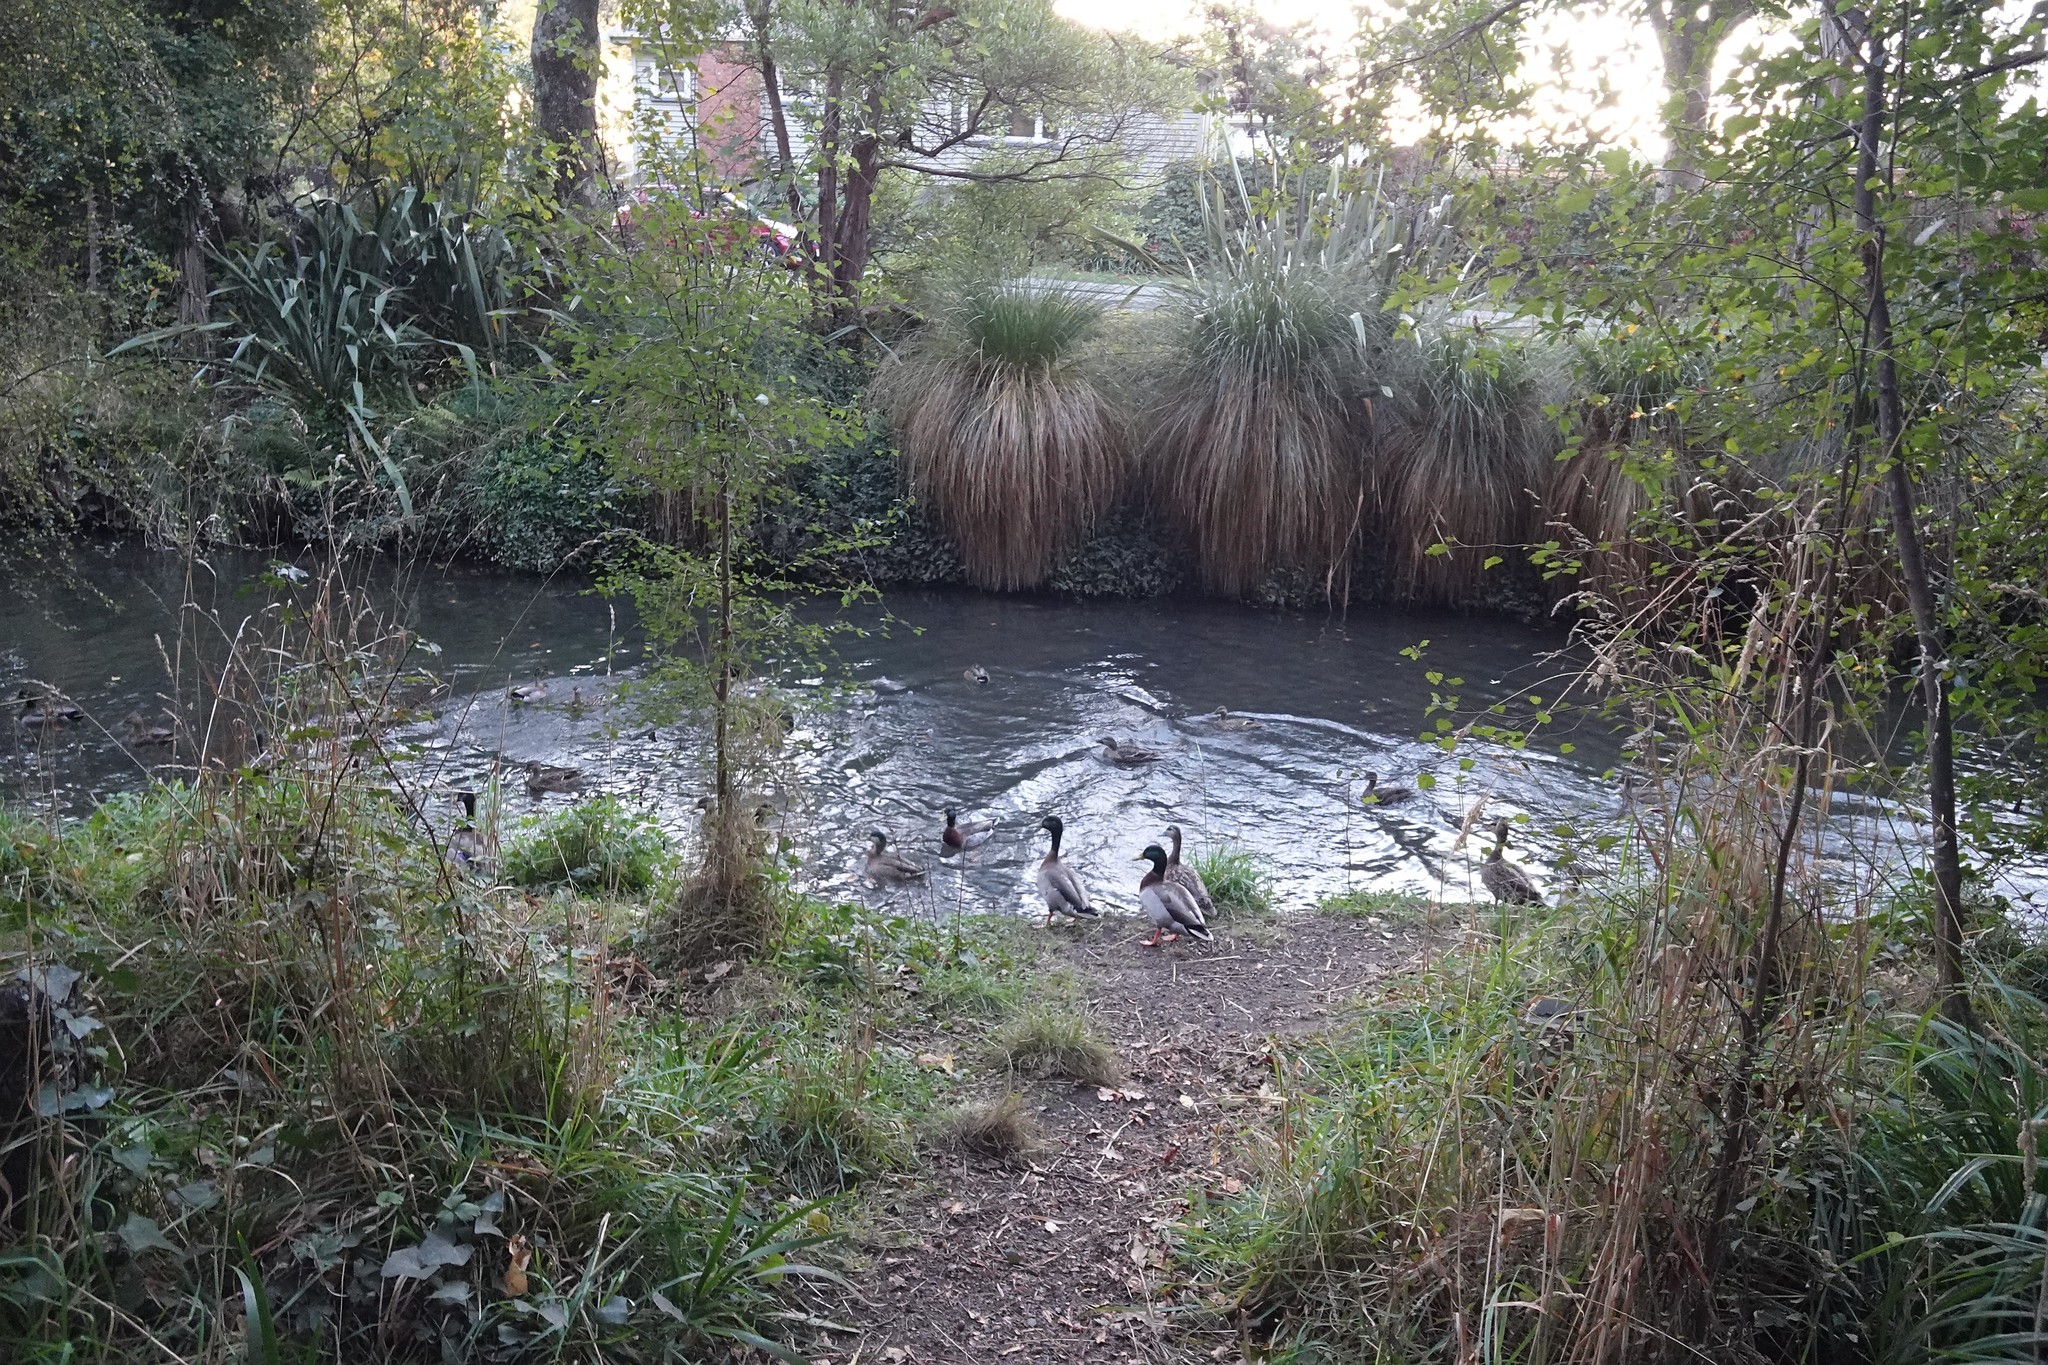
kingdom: Animalia
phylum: Chordata
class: Aves
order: Anseriformes
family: Anatidae
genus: Anas
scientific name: Anas platyrhynchos
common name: Mallard
